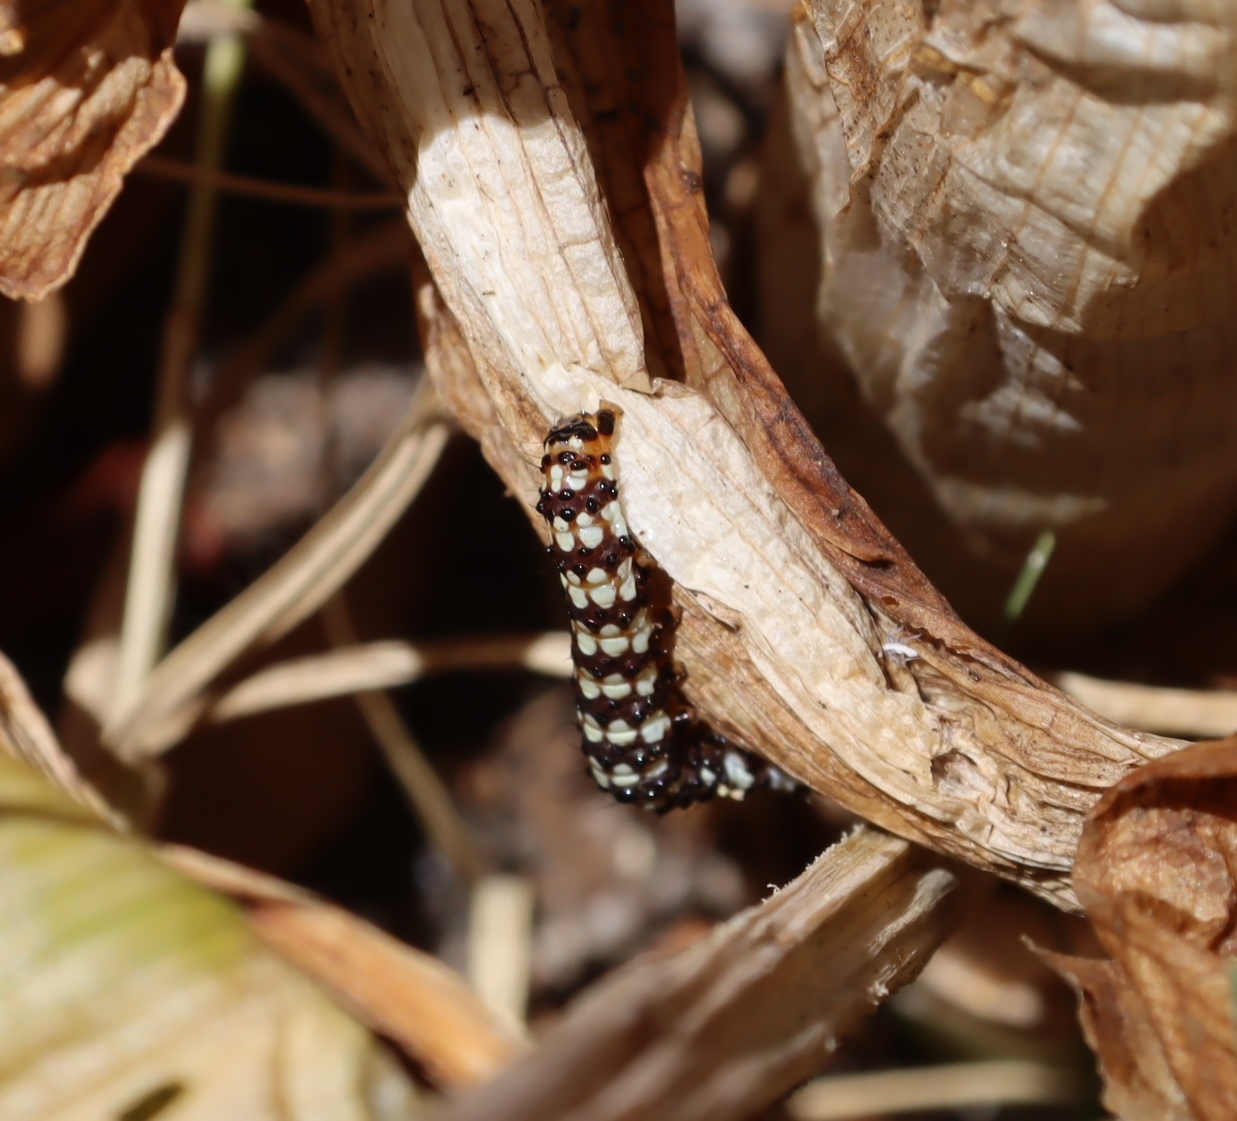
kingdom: Animalia
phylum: Arthropoda
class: Insecta
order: Lepidoptera
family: Noctuidae
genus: Brithys
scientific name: Brithys crini
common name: Kew arches
